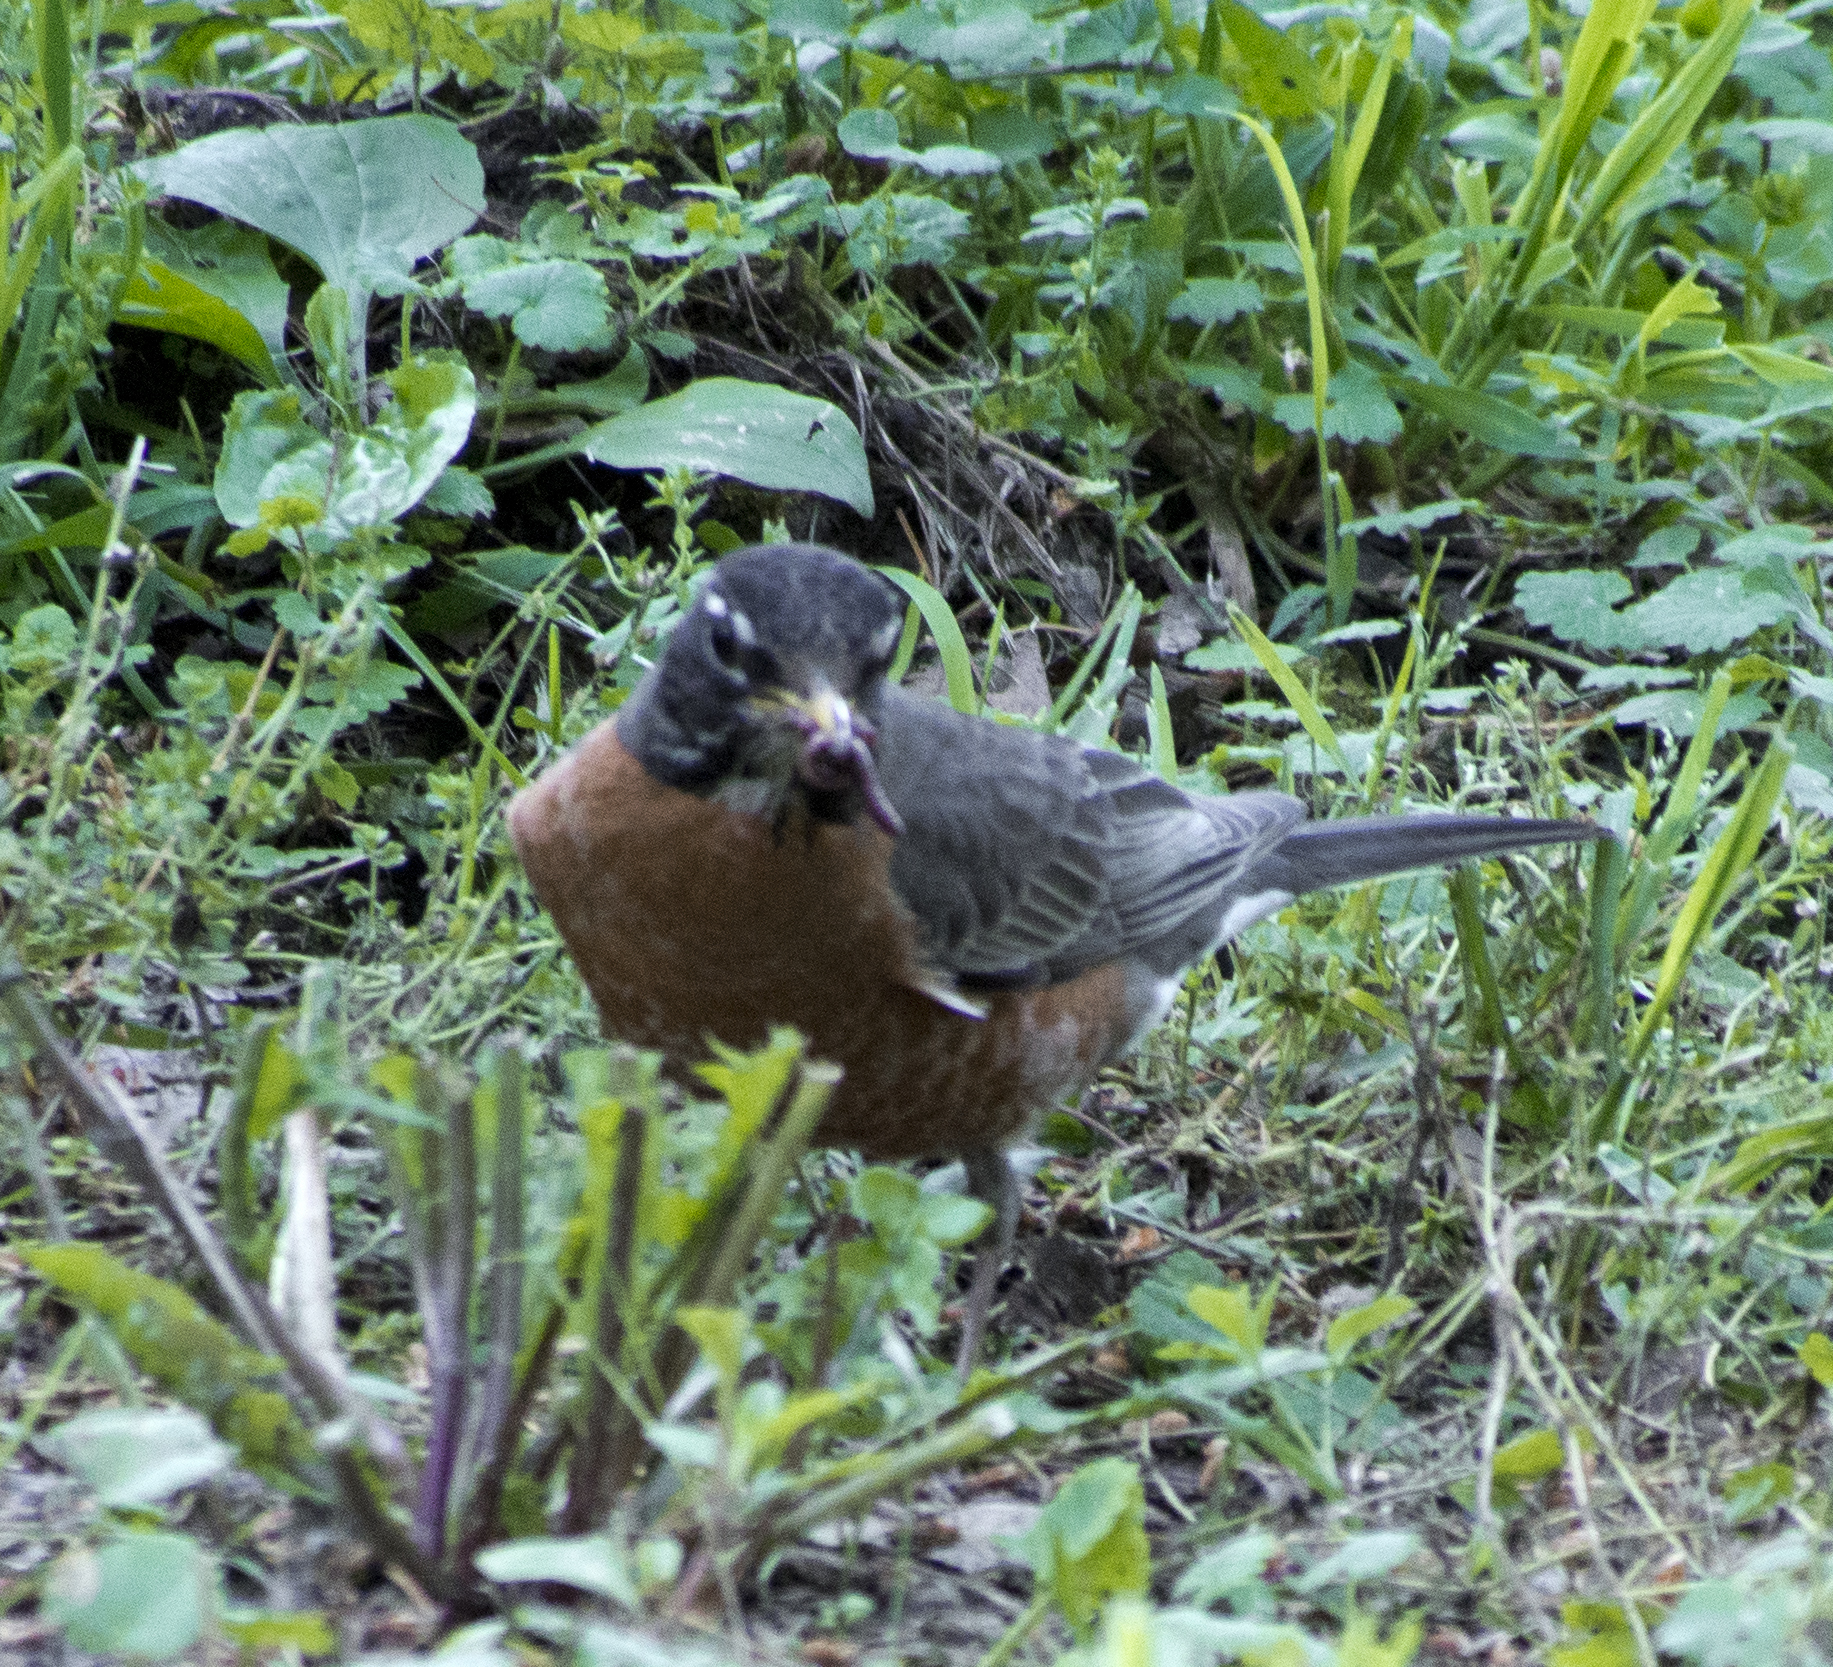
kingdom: Animalia
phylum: Chordata
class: Aves
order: Passeriformes
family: Turdidae
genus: Turdus
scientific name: Turdus migratorius
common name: American robin
